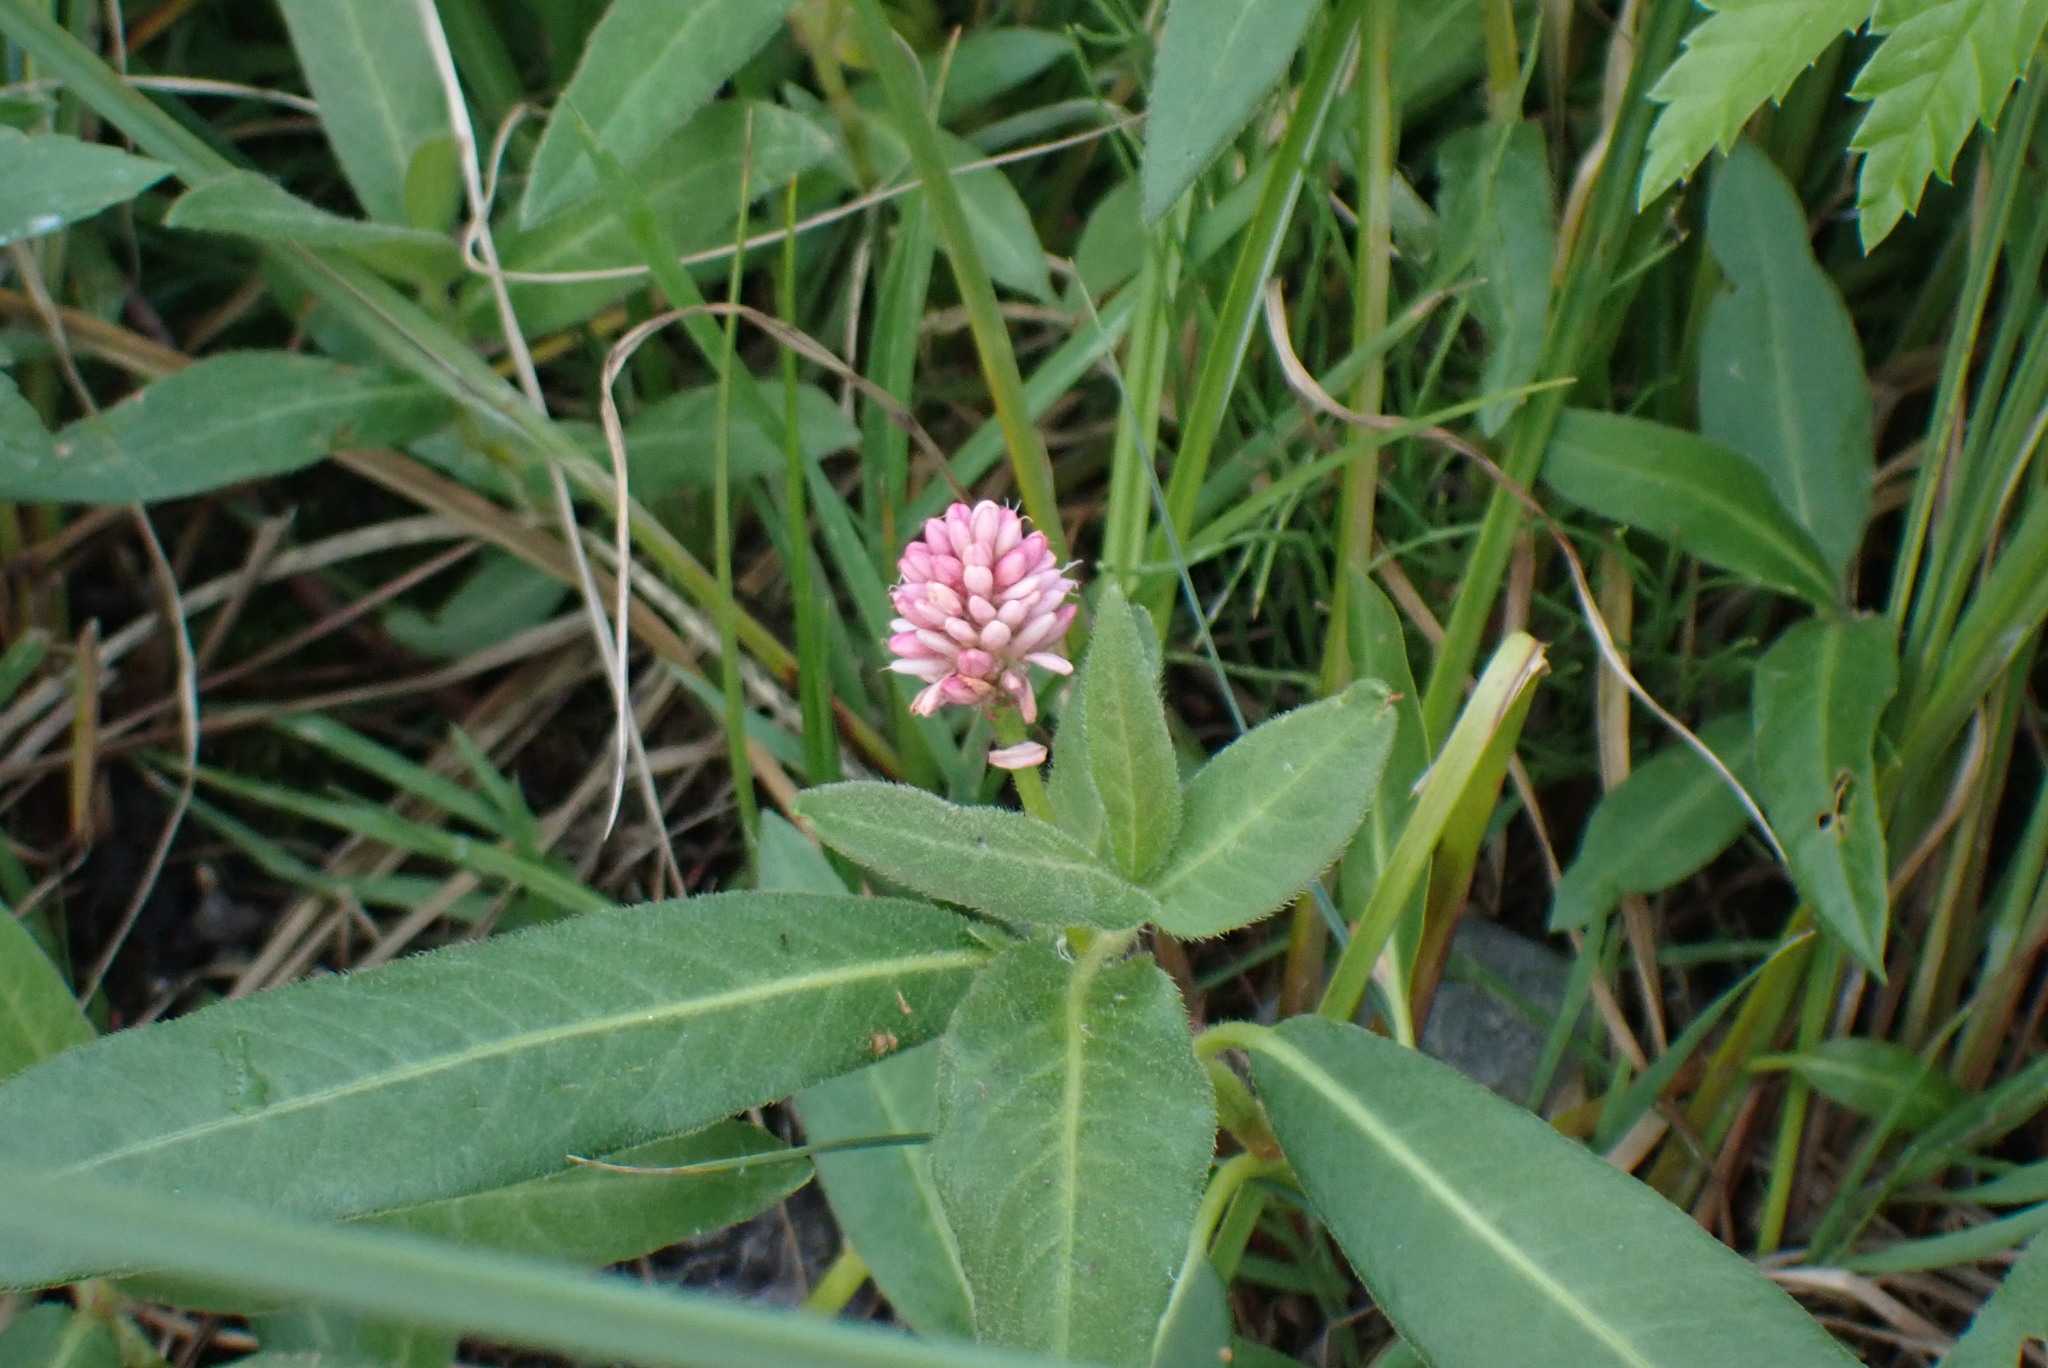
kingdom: Plantae
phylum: Tracheophyta
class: Magnoliopsida
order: Caryophyllales
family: Polygonaceae
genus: Persicaria
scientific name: Persicaria amphibia
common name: Amphibious bistort
